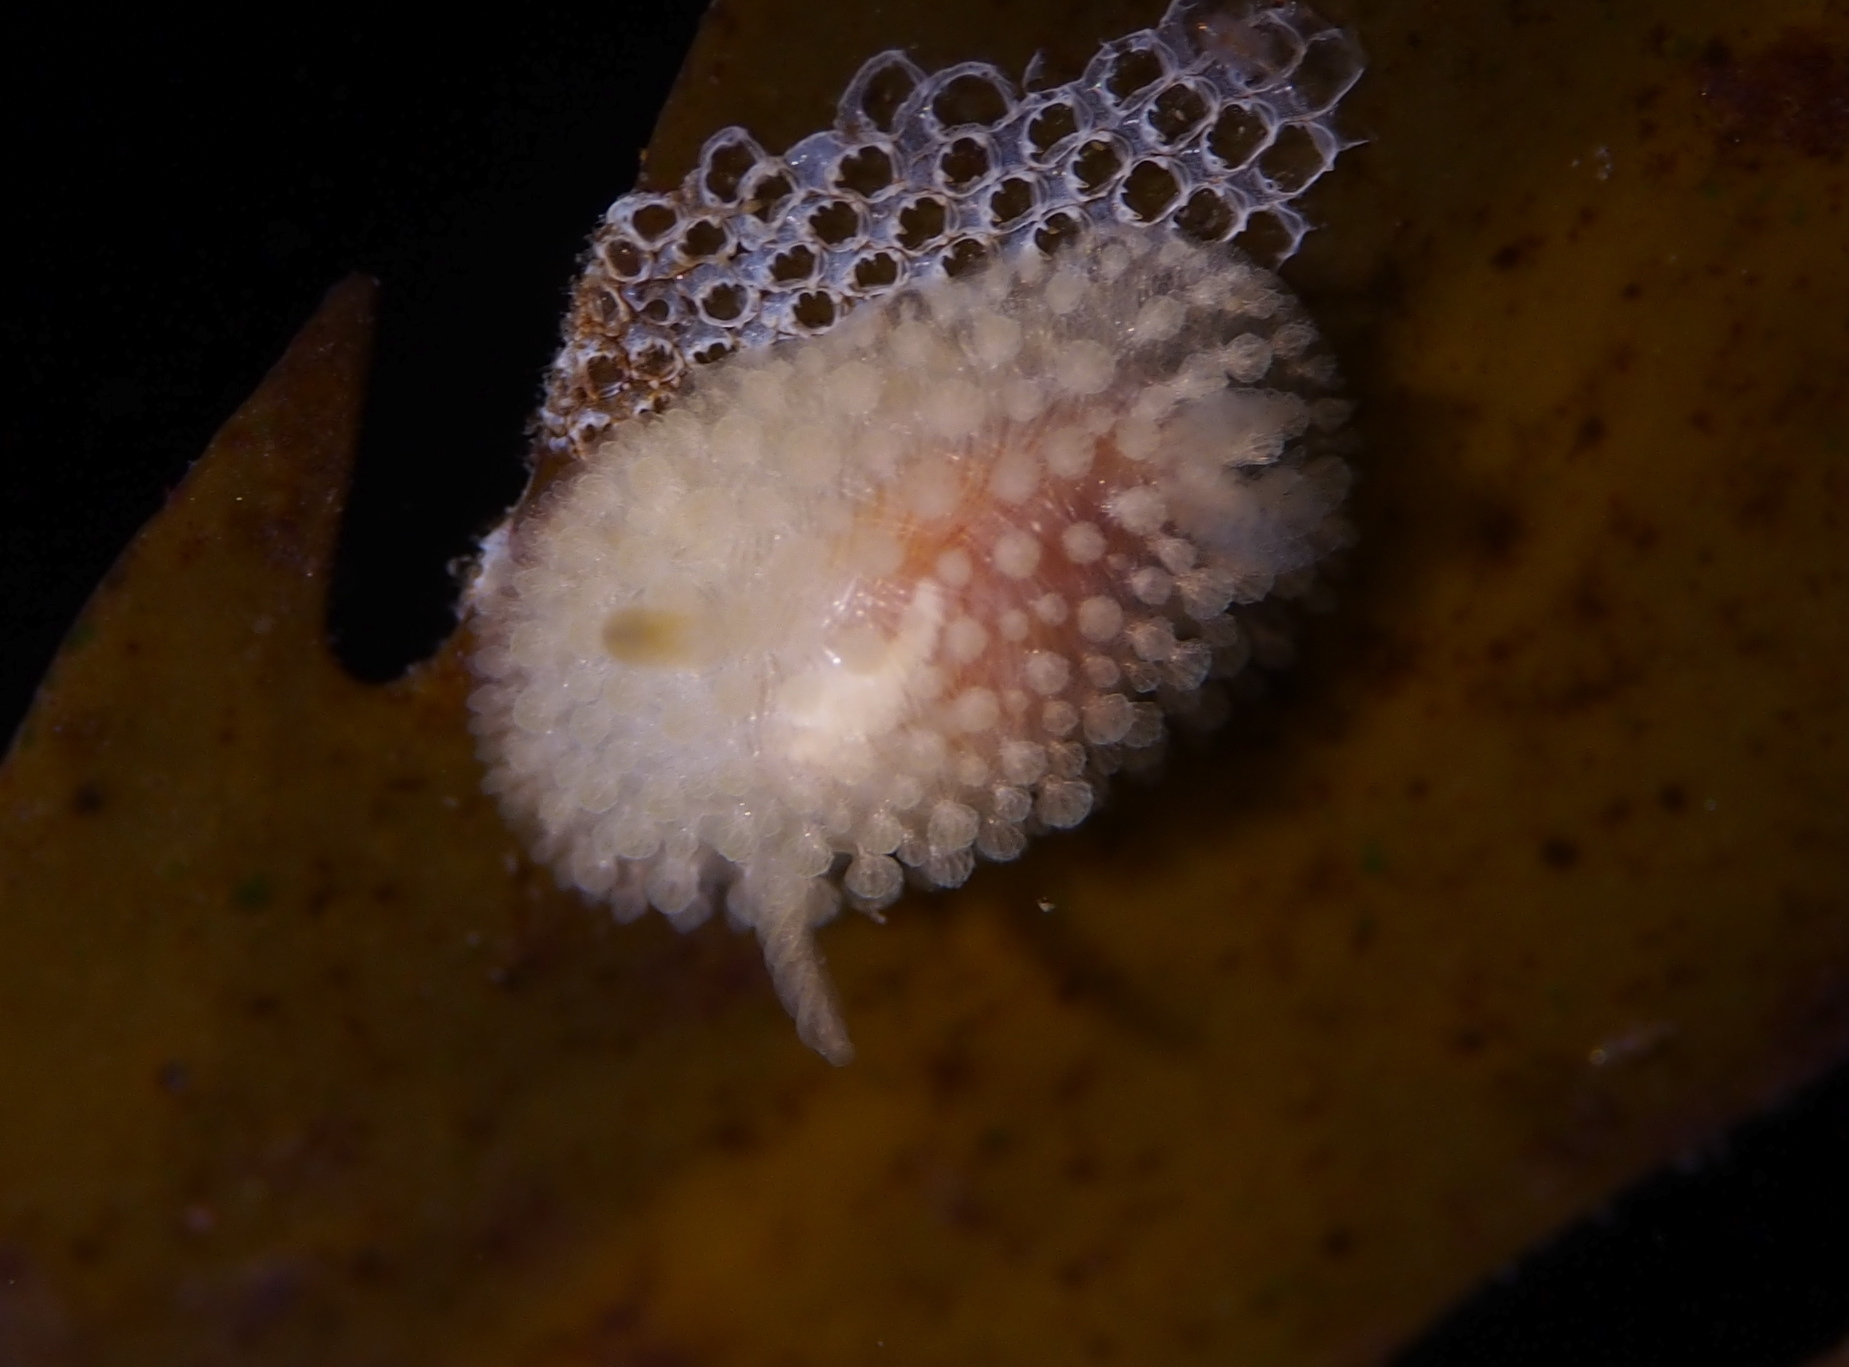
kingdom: Animalia
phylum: Mollusca
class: Gastropoda
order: Nudibranchia
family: Onchidorididae
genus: Onchidoris
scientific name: Onchidoris muricata
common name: Rough doris
